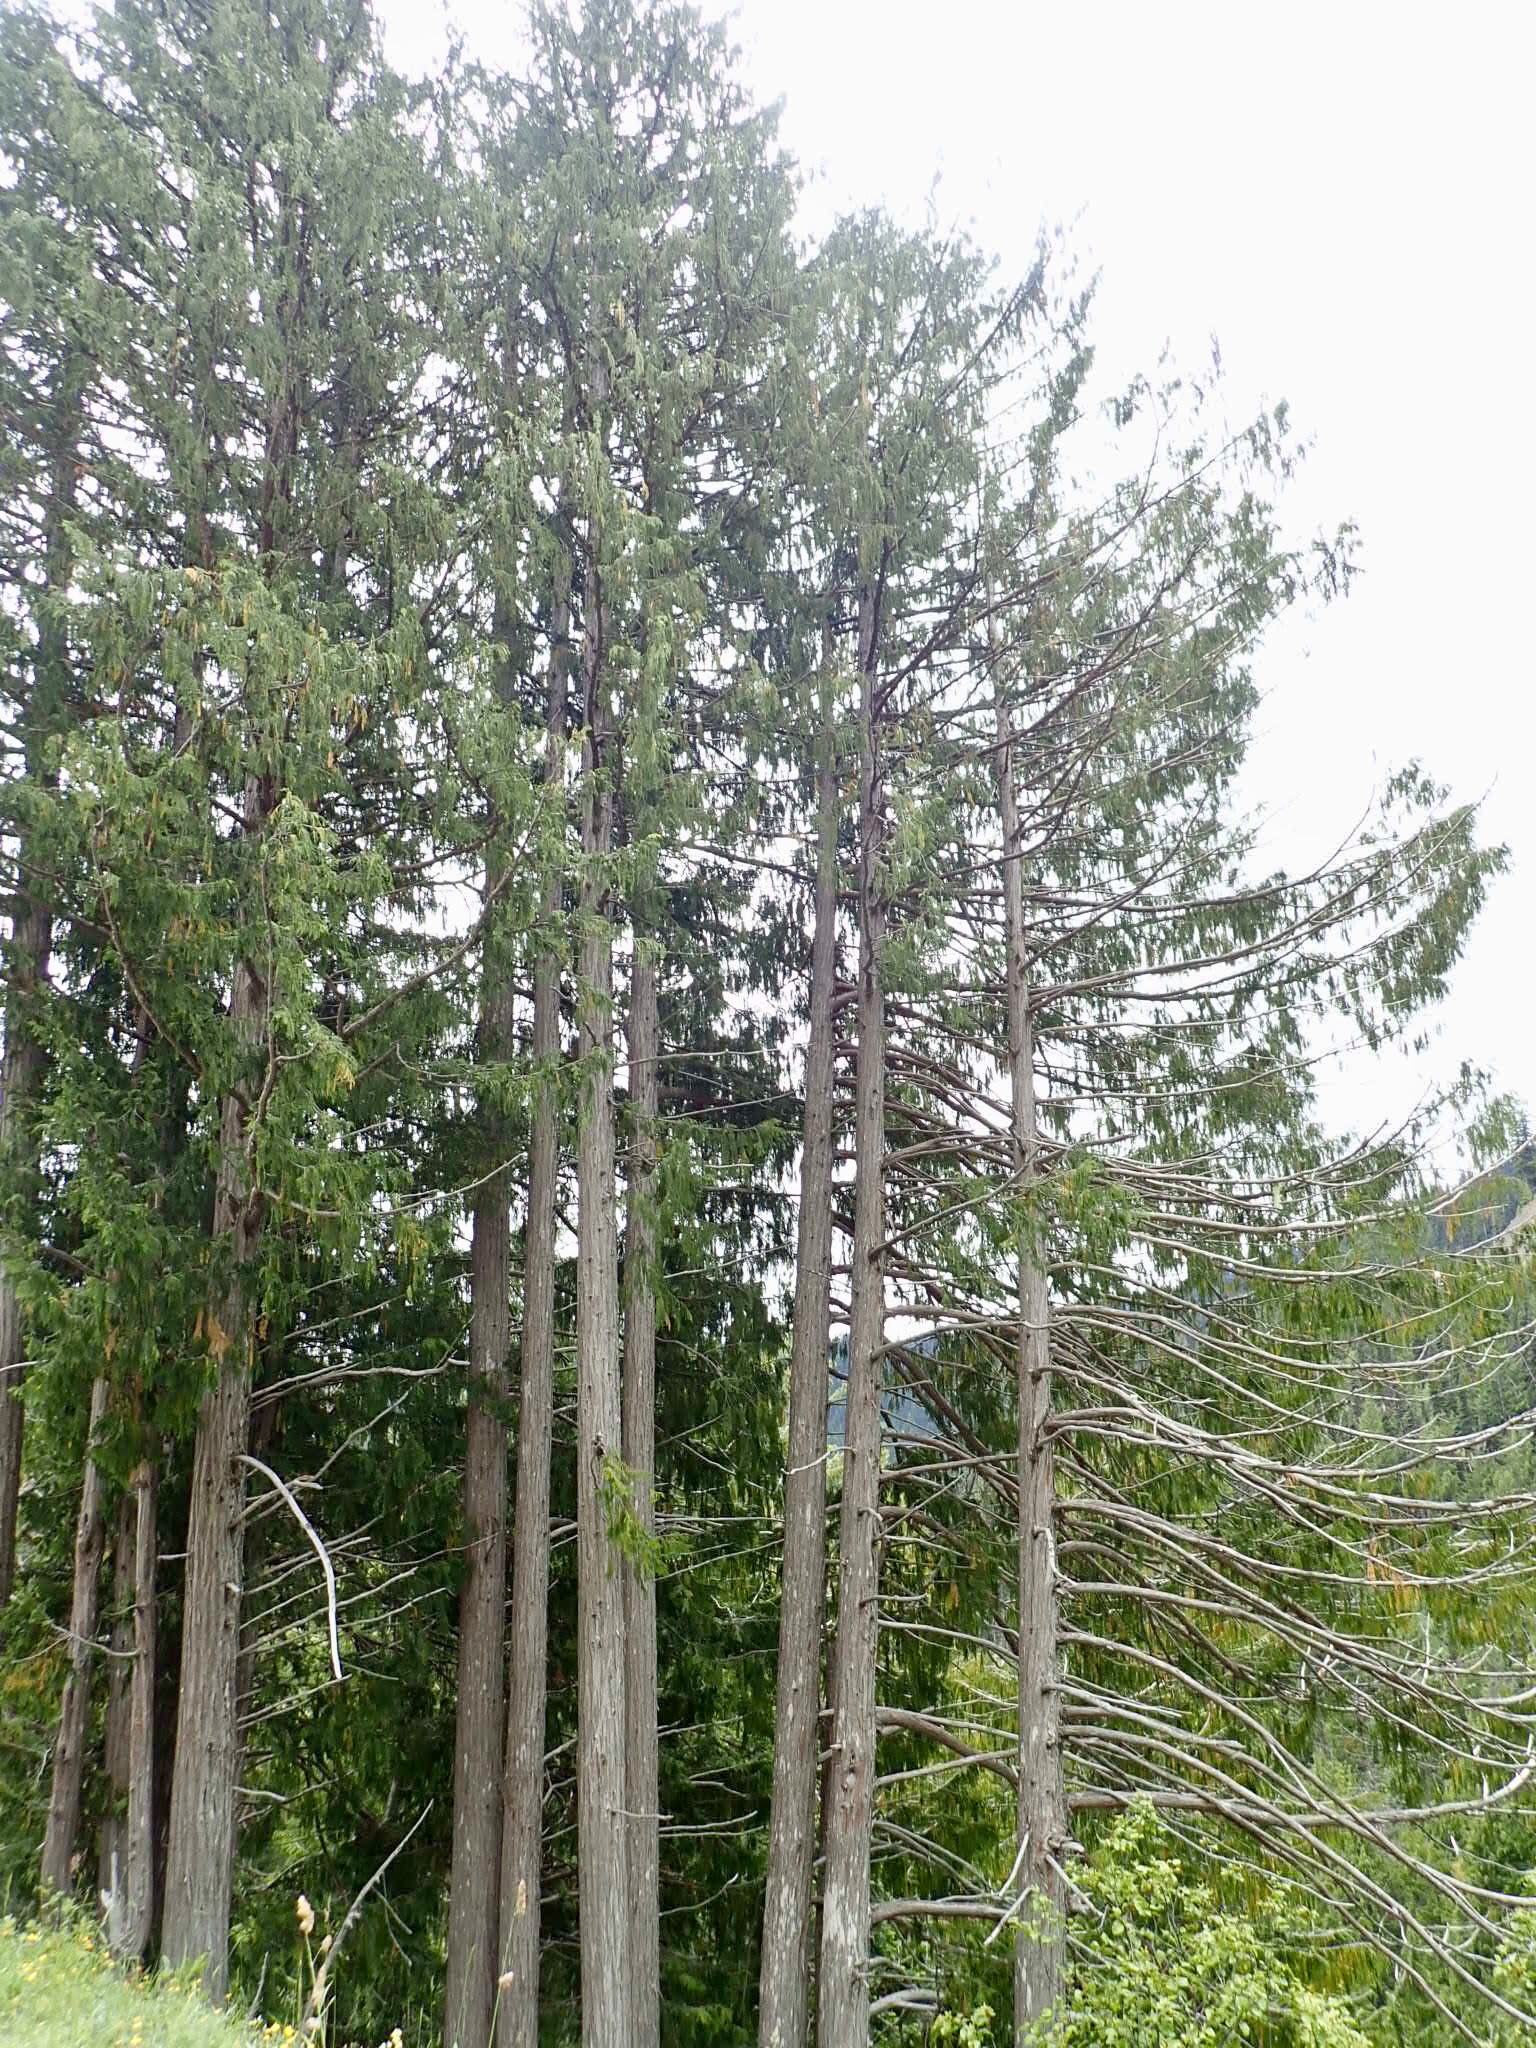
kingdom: Plantae
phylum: Tracheophyta
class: Pinopsida
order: Pinales
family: Cupressaceae
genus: Xanthocyparis
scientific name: Xanthocyparis nootkatensis
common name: Nootka cypress
